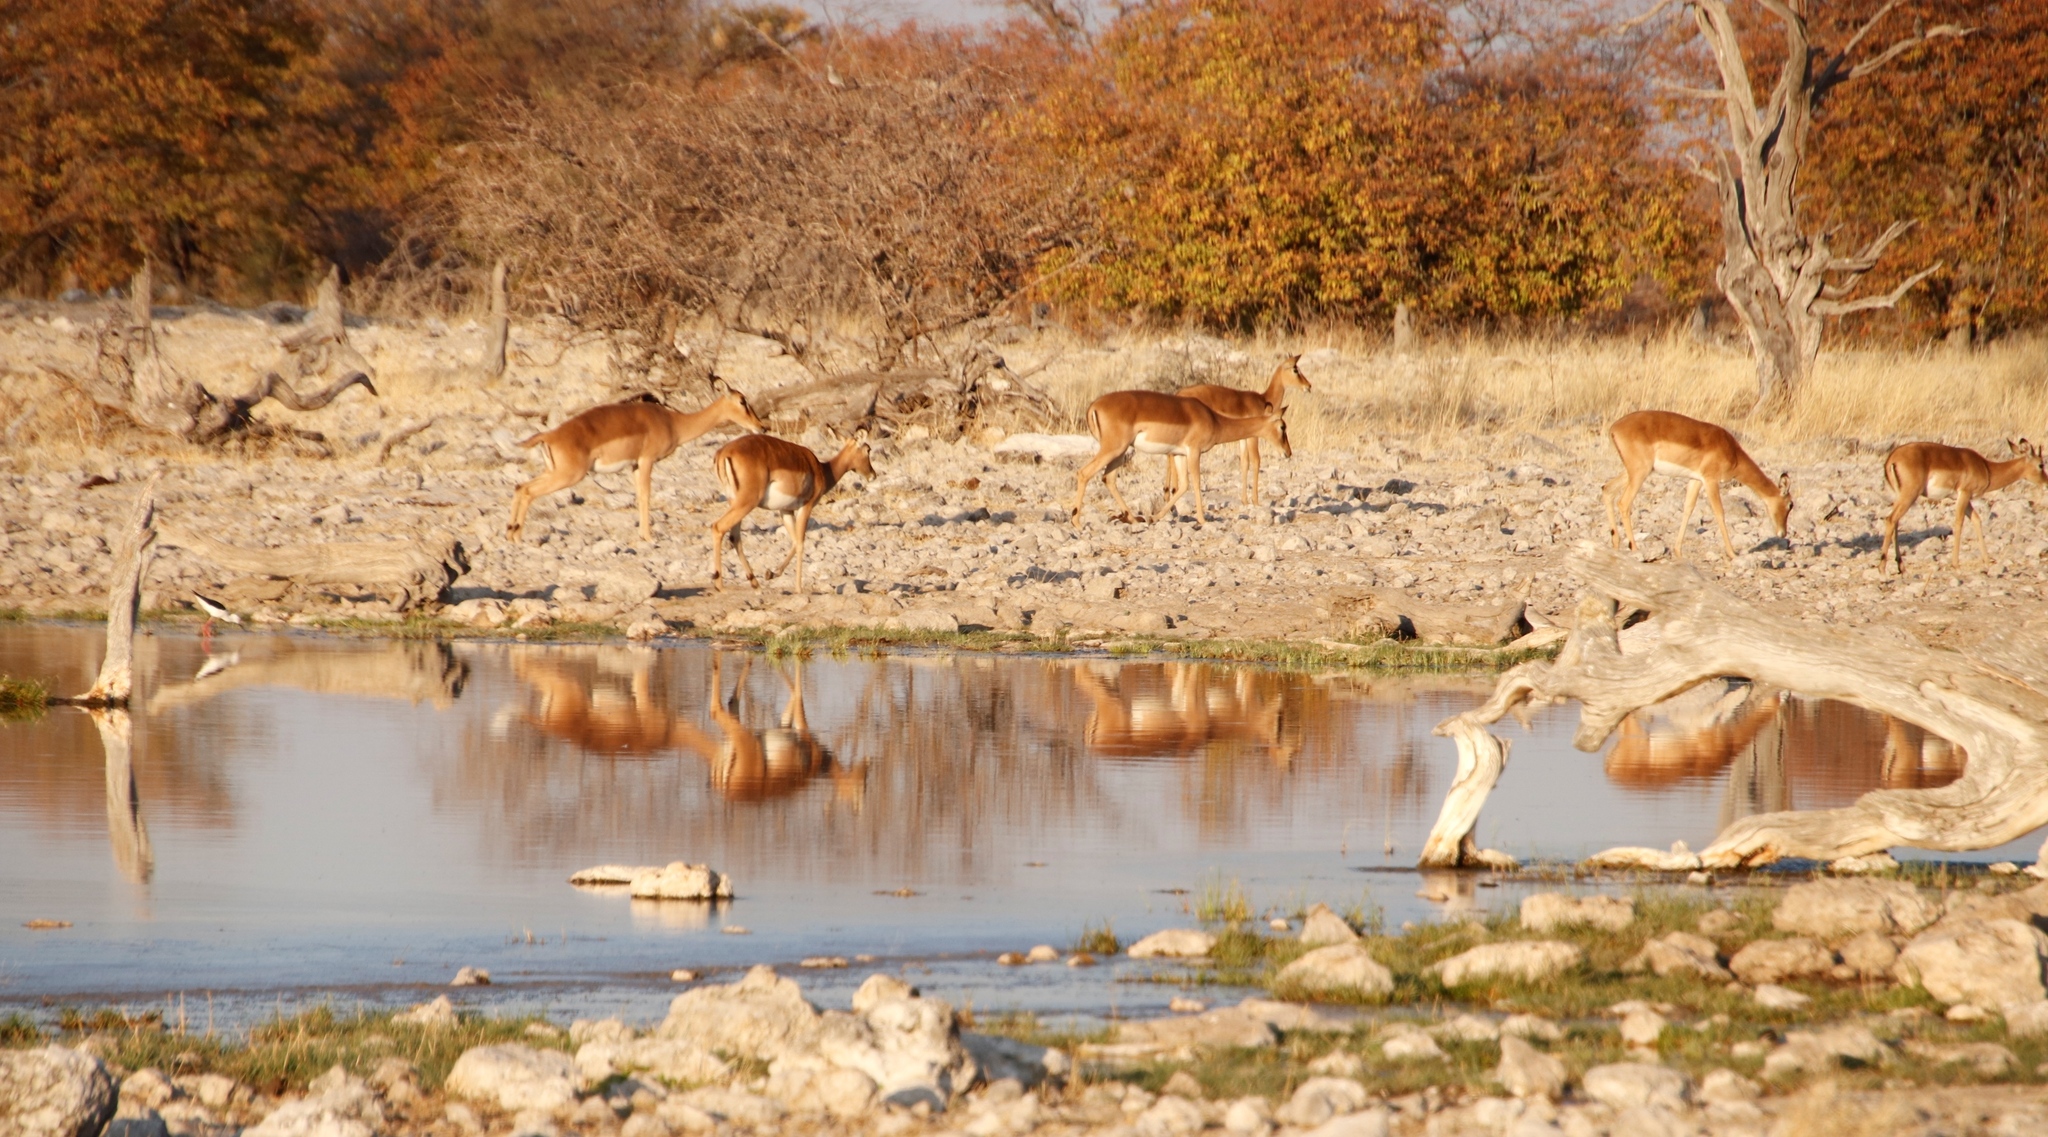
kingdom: Animalia
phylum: Chordata
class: Mammalia
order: Artiodactyla
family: Bovidae
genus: Aepyceros
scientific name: Aepyceros melampus
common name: Impala
